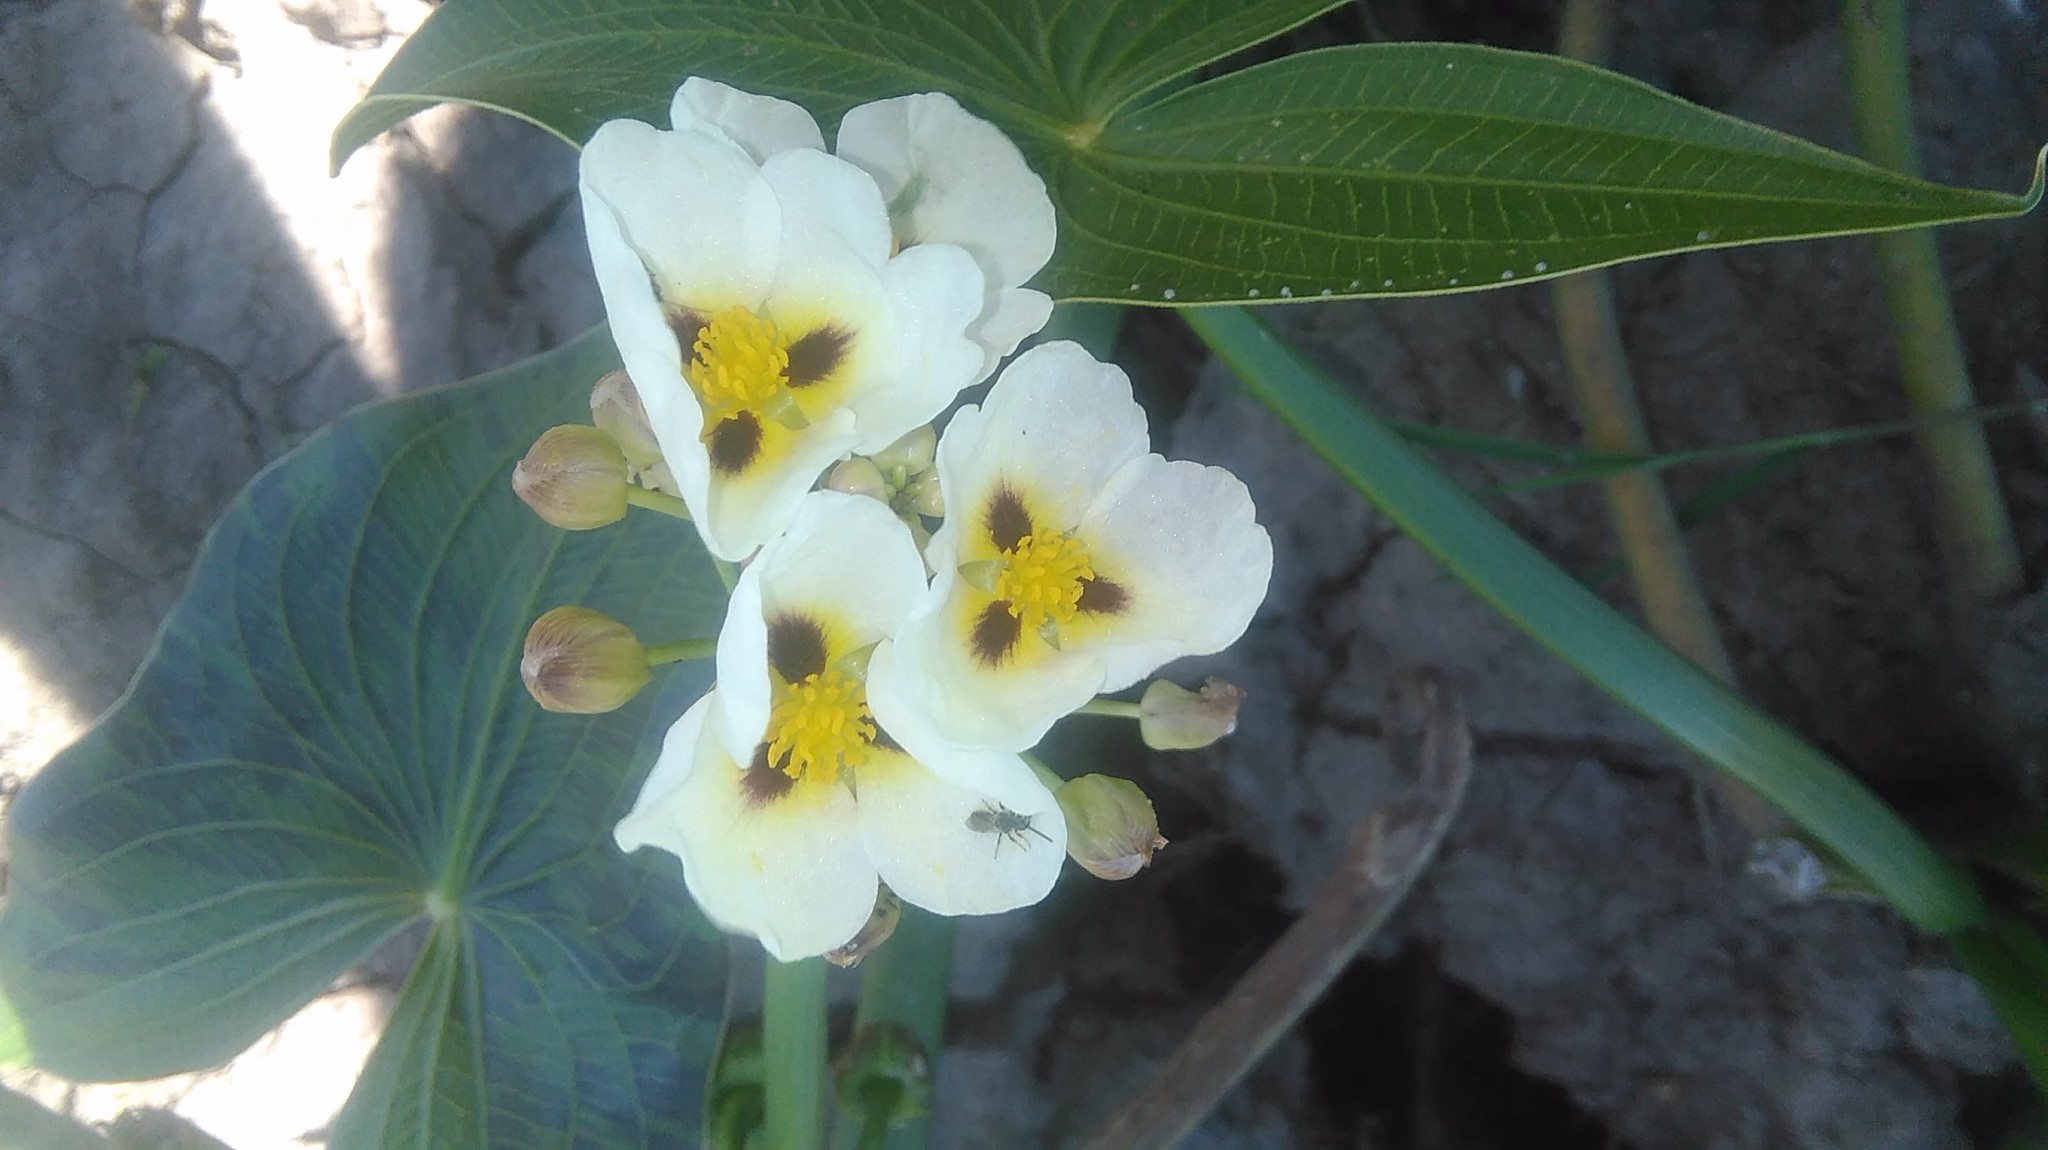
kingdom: Plantae
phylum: Tracheophyta
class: Liliopsida
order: Alismatales
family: Alismataceae
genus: Sagittaria
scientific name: Sagittaria montevidensis
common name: Giant arrowhead
